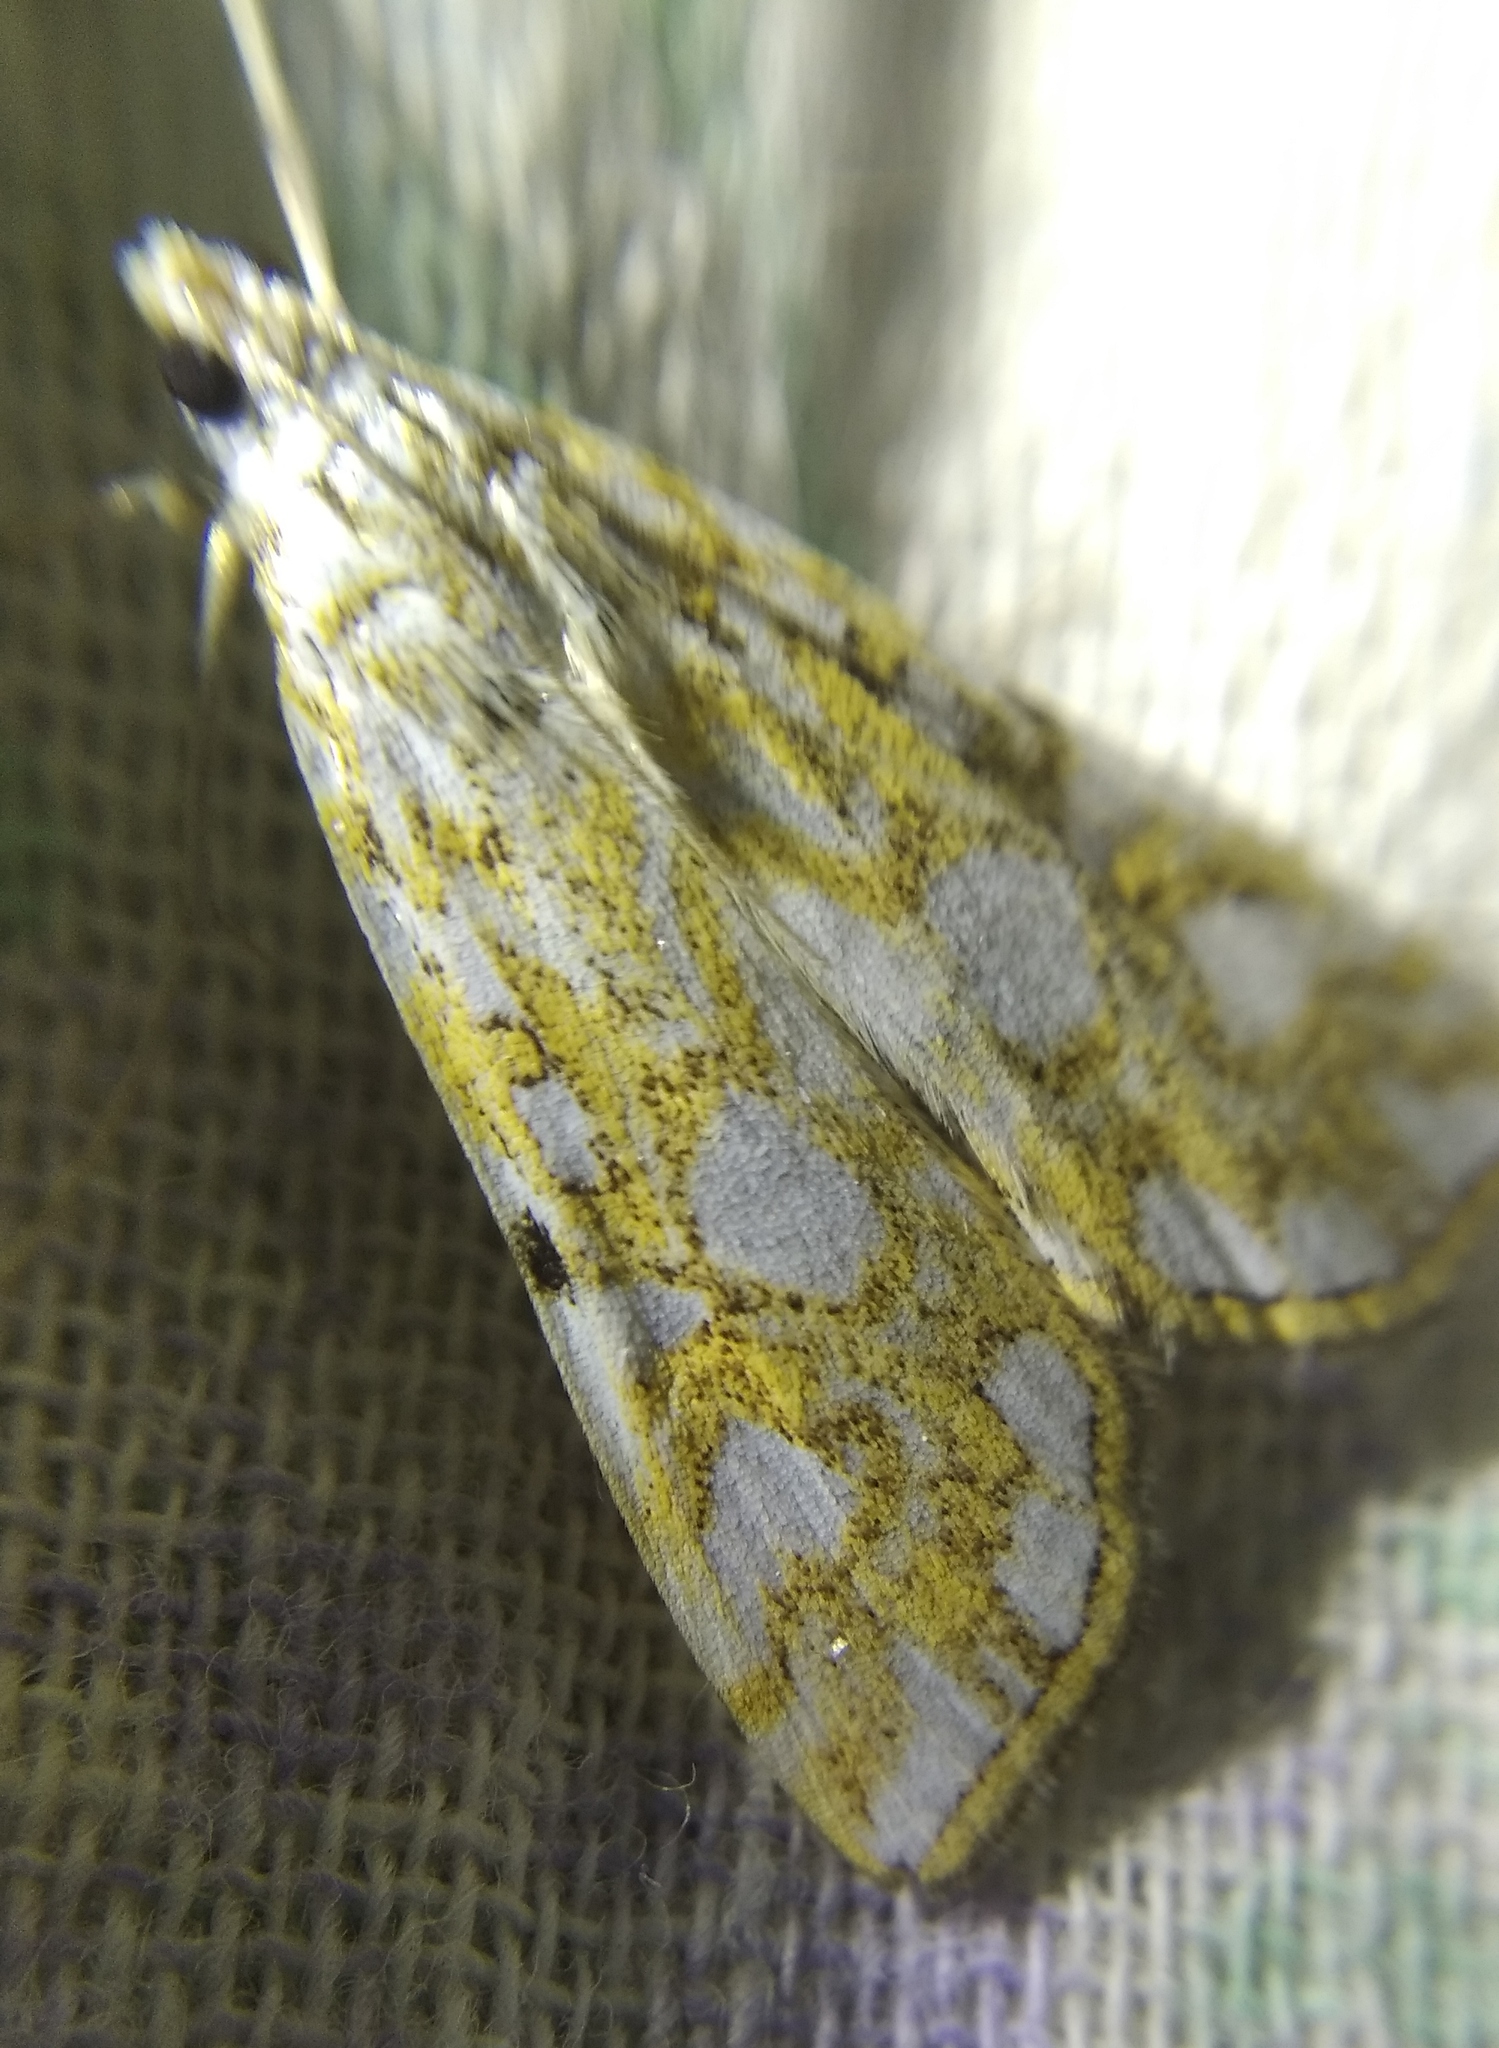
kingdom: Animalia
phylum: Arthropoda
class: Insecta
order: Lepidoptera
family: Crambidae
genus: Elophila
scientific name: Elophila nymphaeata
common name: Brown china-mark
